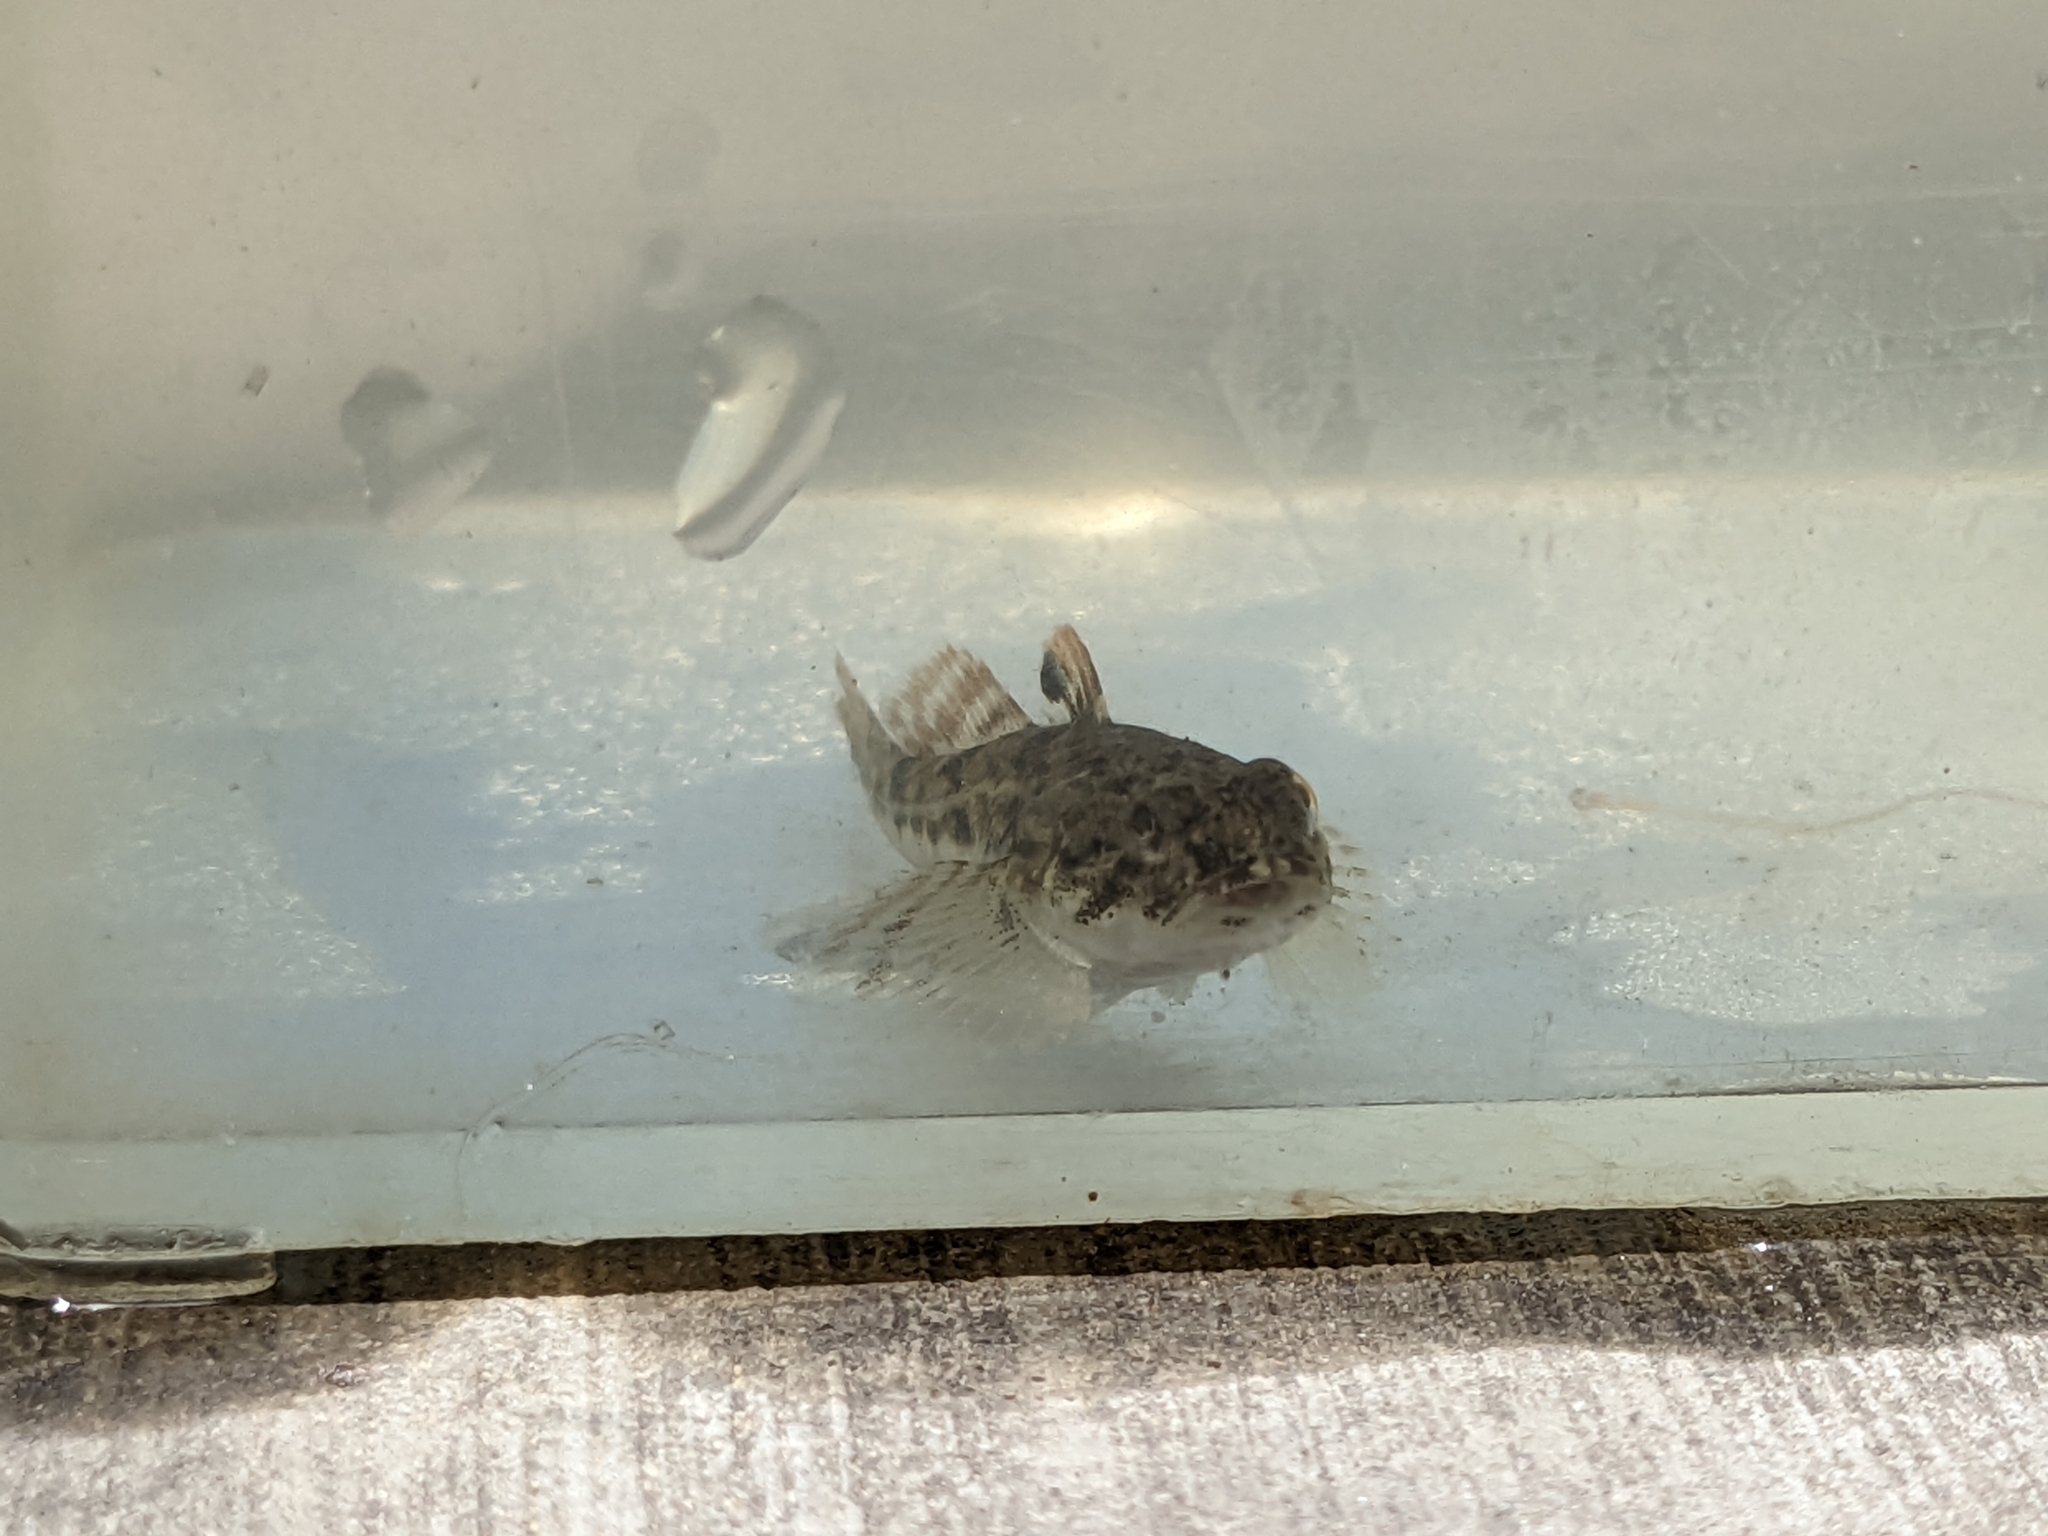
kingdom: Animalia
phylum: Chordata
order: Scorpaeniformes
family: Cottidae
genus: Leptocottus
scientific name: Leptocottus armatus
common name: Pacific staghorn sculpin
